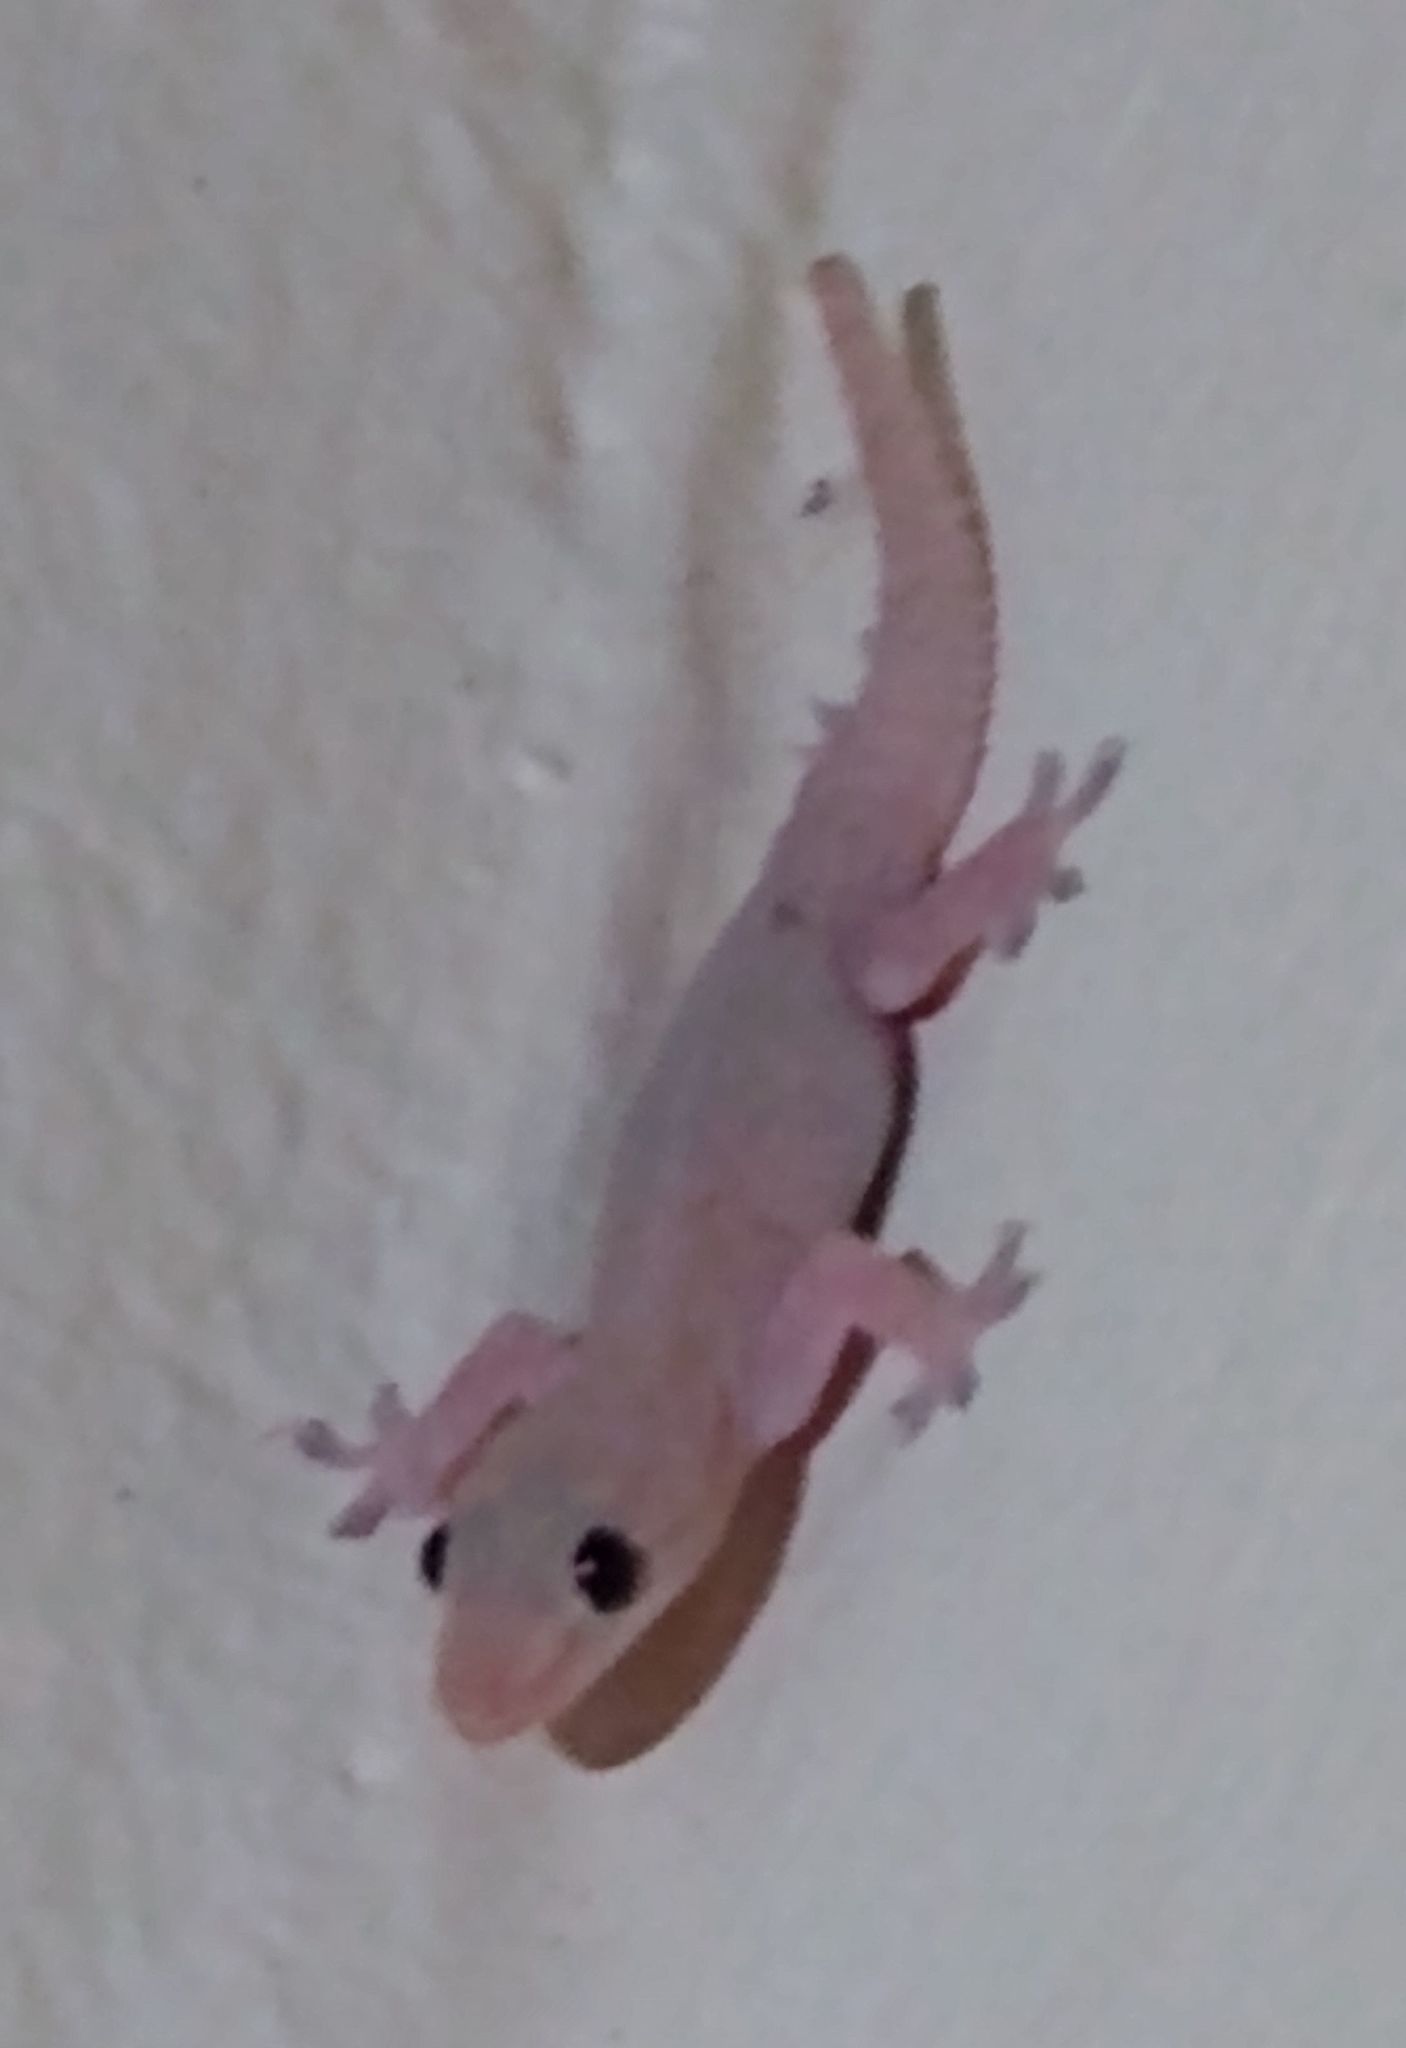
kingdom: Animalia
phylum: Chordata
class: Squamata
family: Gekkonidae
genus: Hemidactylus
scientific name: Hemidactylus frenatus
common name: Common house gecko
